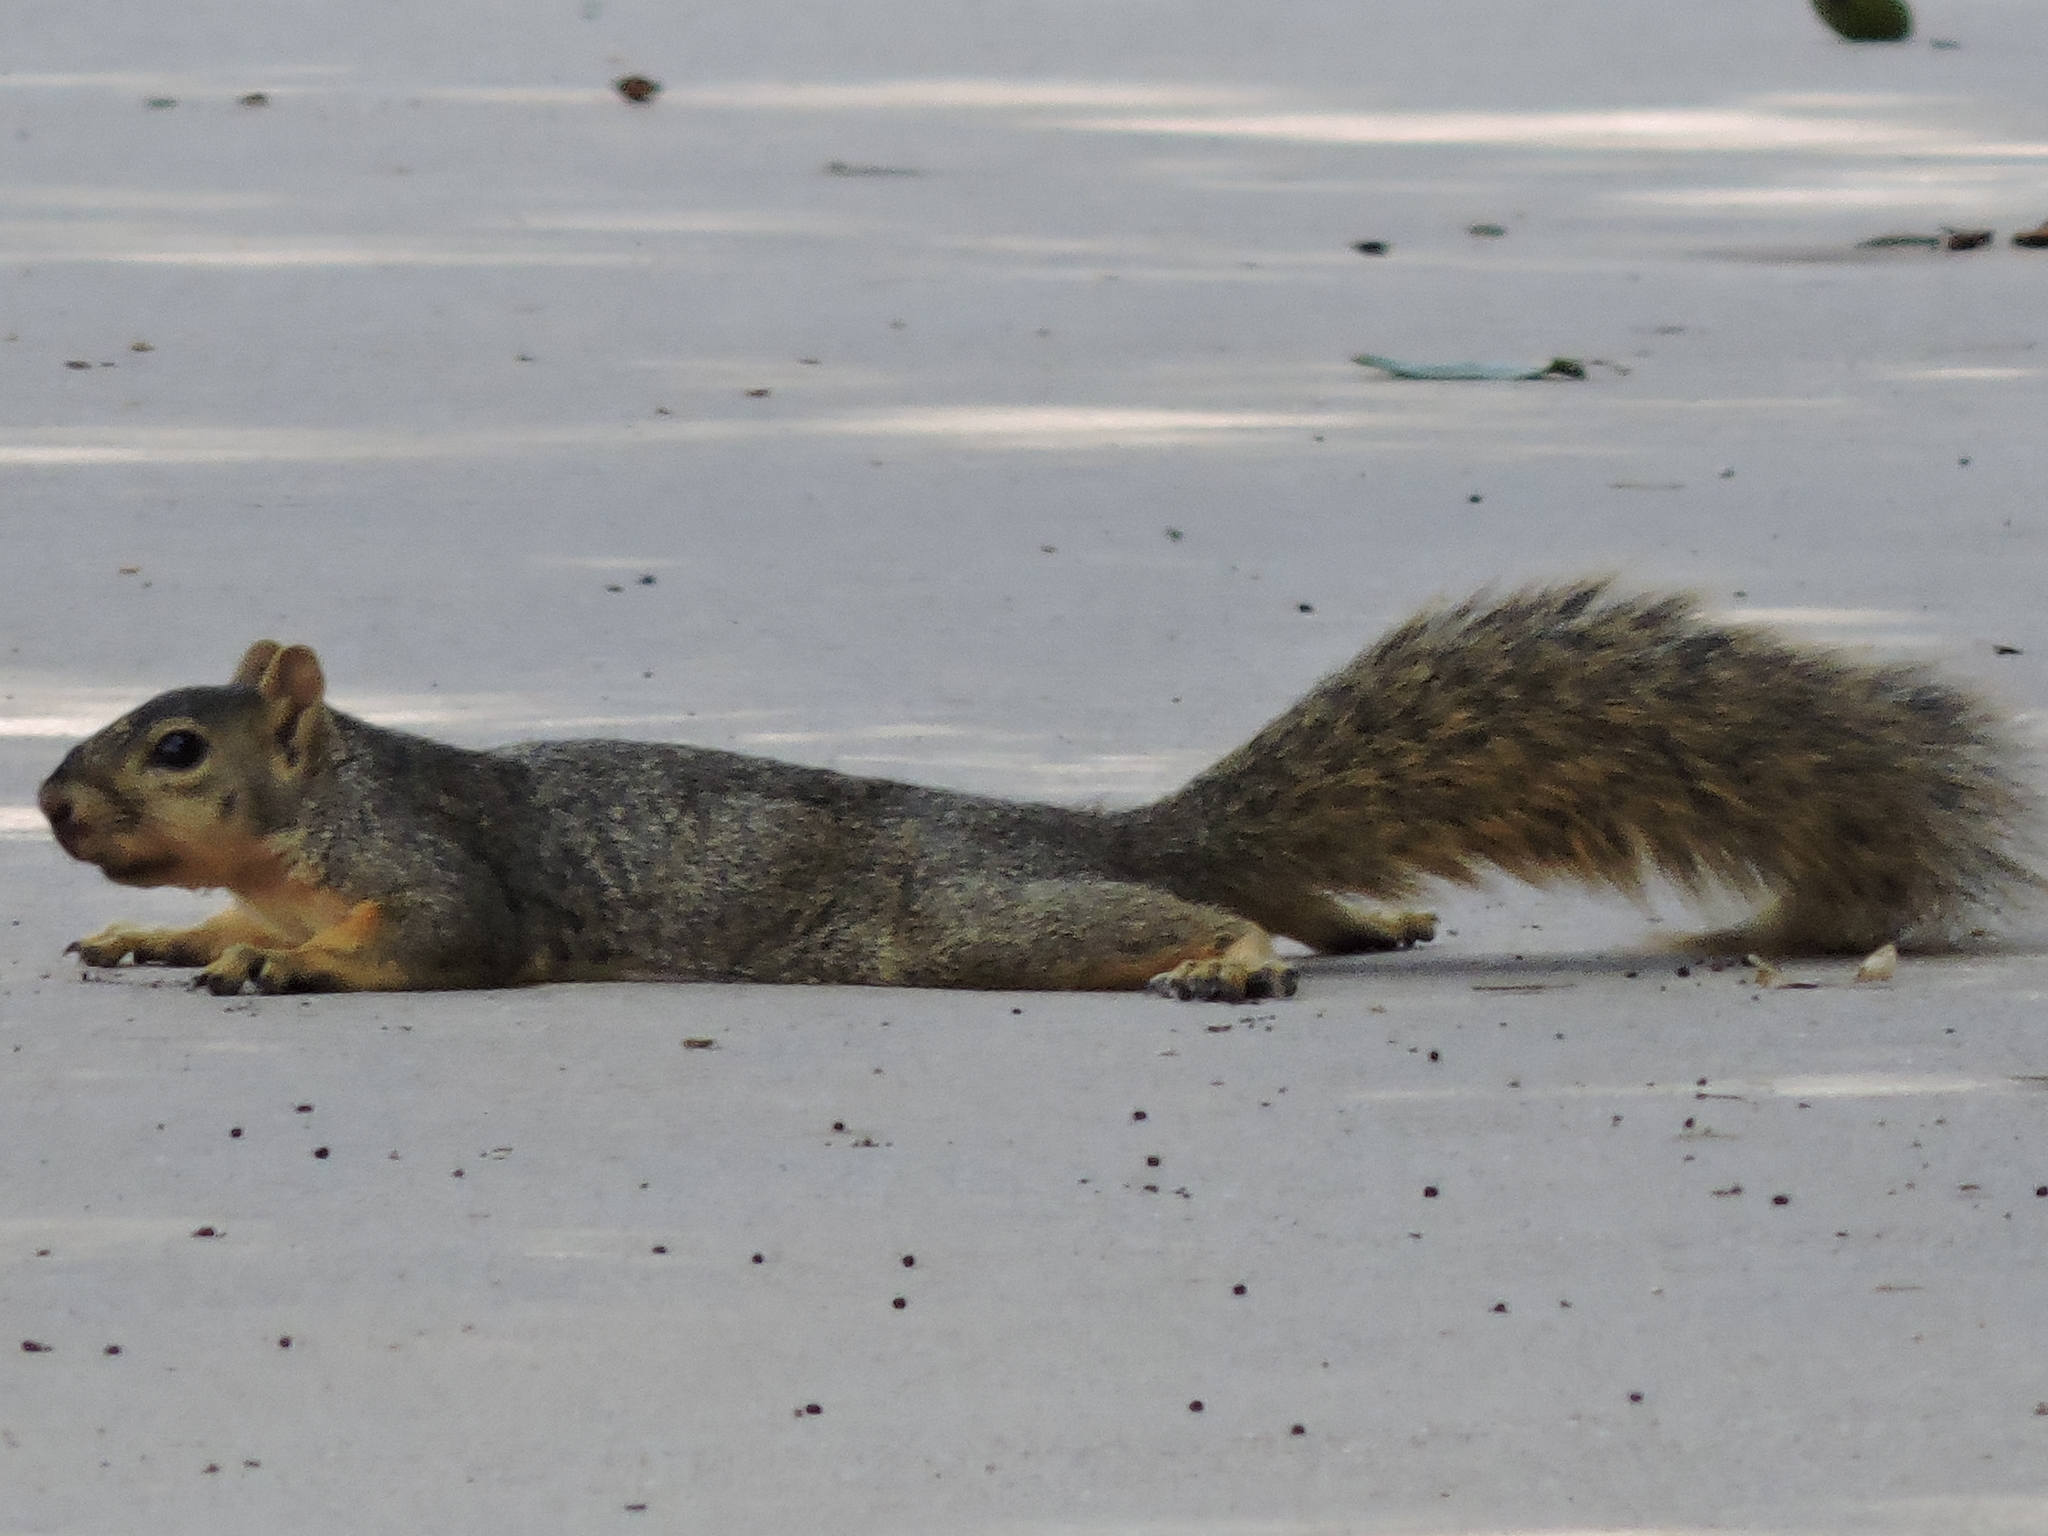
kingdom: Animalia
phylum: Chordata
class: Mammalia
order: Rodentia
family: Sciuridae
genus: Sciurus
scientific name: Sciurus niger
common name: Fox squirrel
